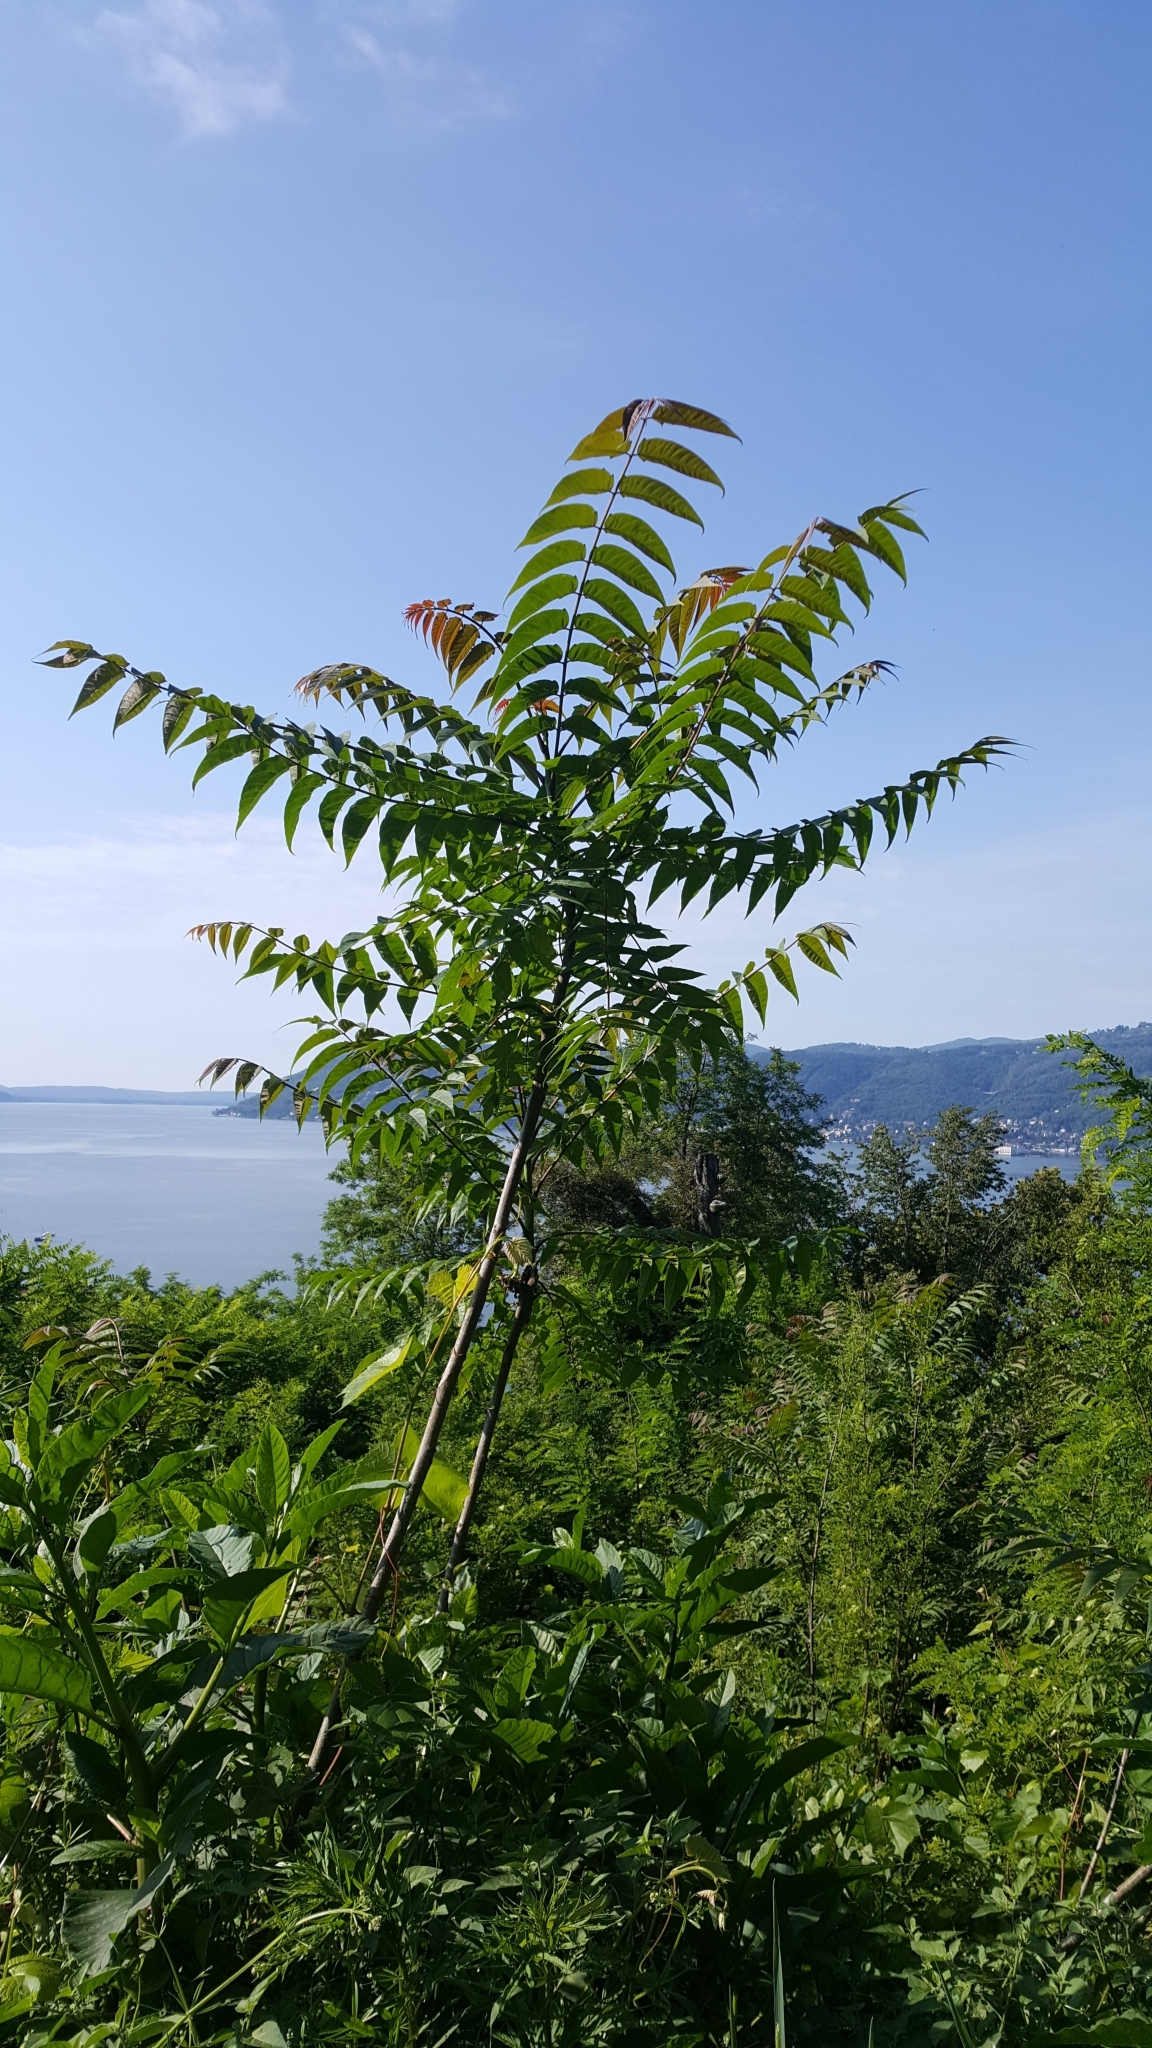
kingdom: Plantae
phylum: Tracheophyta
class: Magnoliopsida
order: Sapindales
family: Simaroubaceae
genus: Ailanthus
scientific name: Ailanthus altissima
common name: Tree-of-heaven
